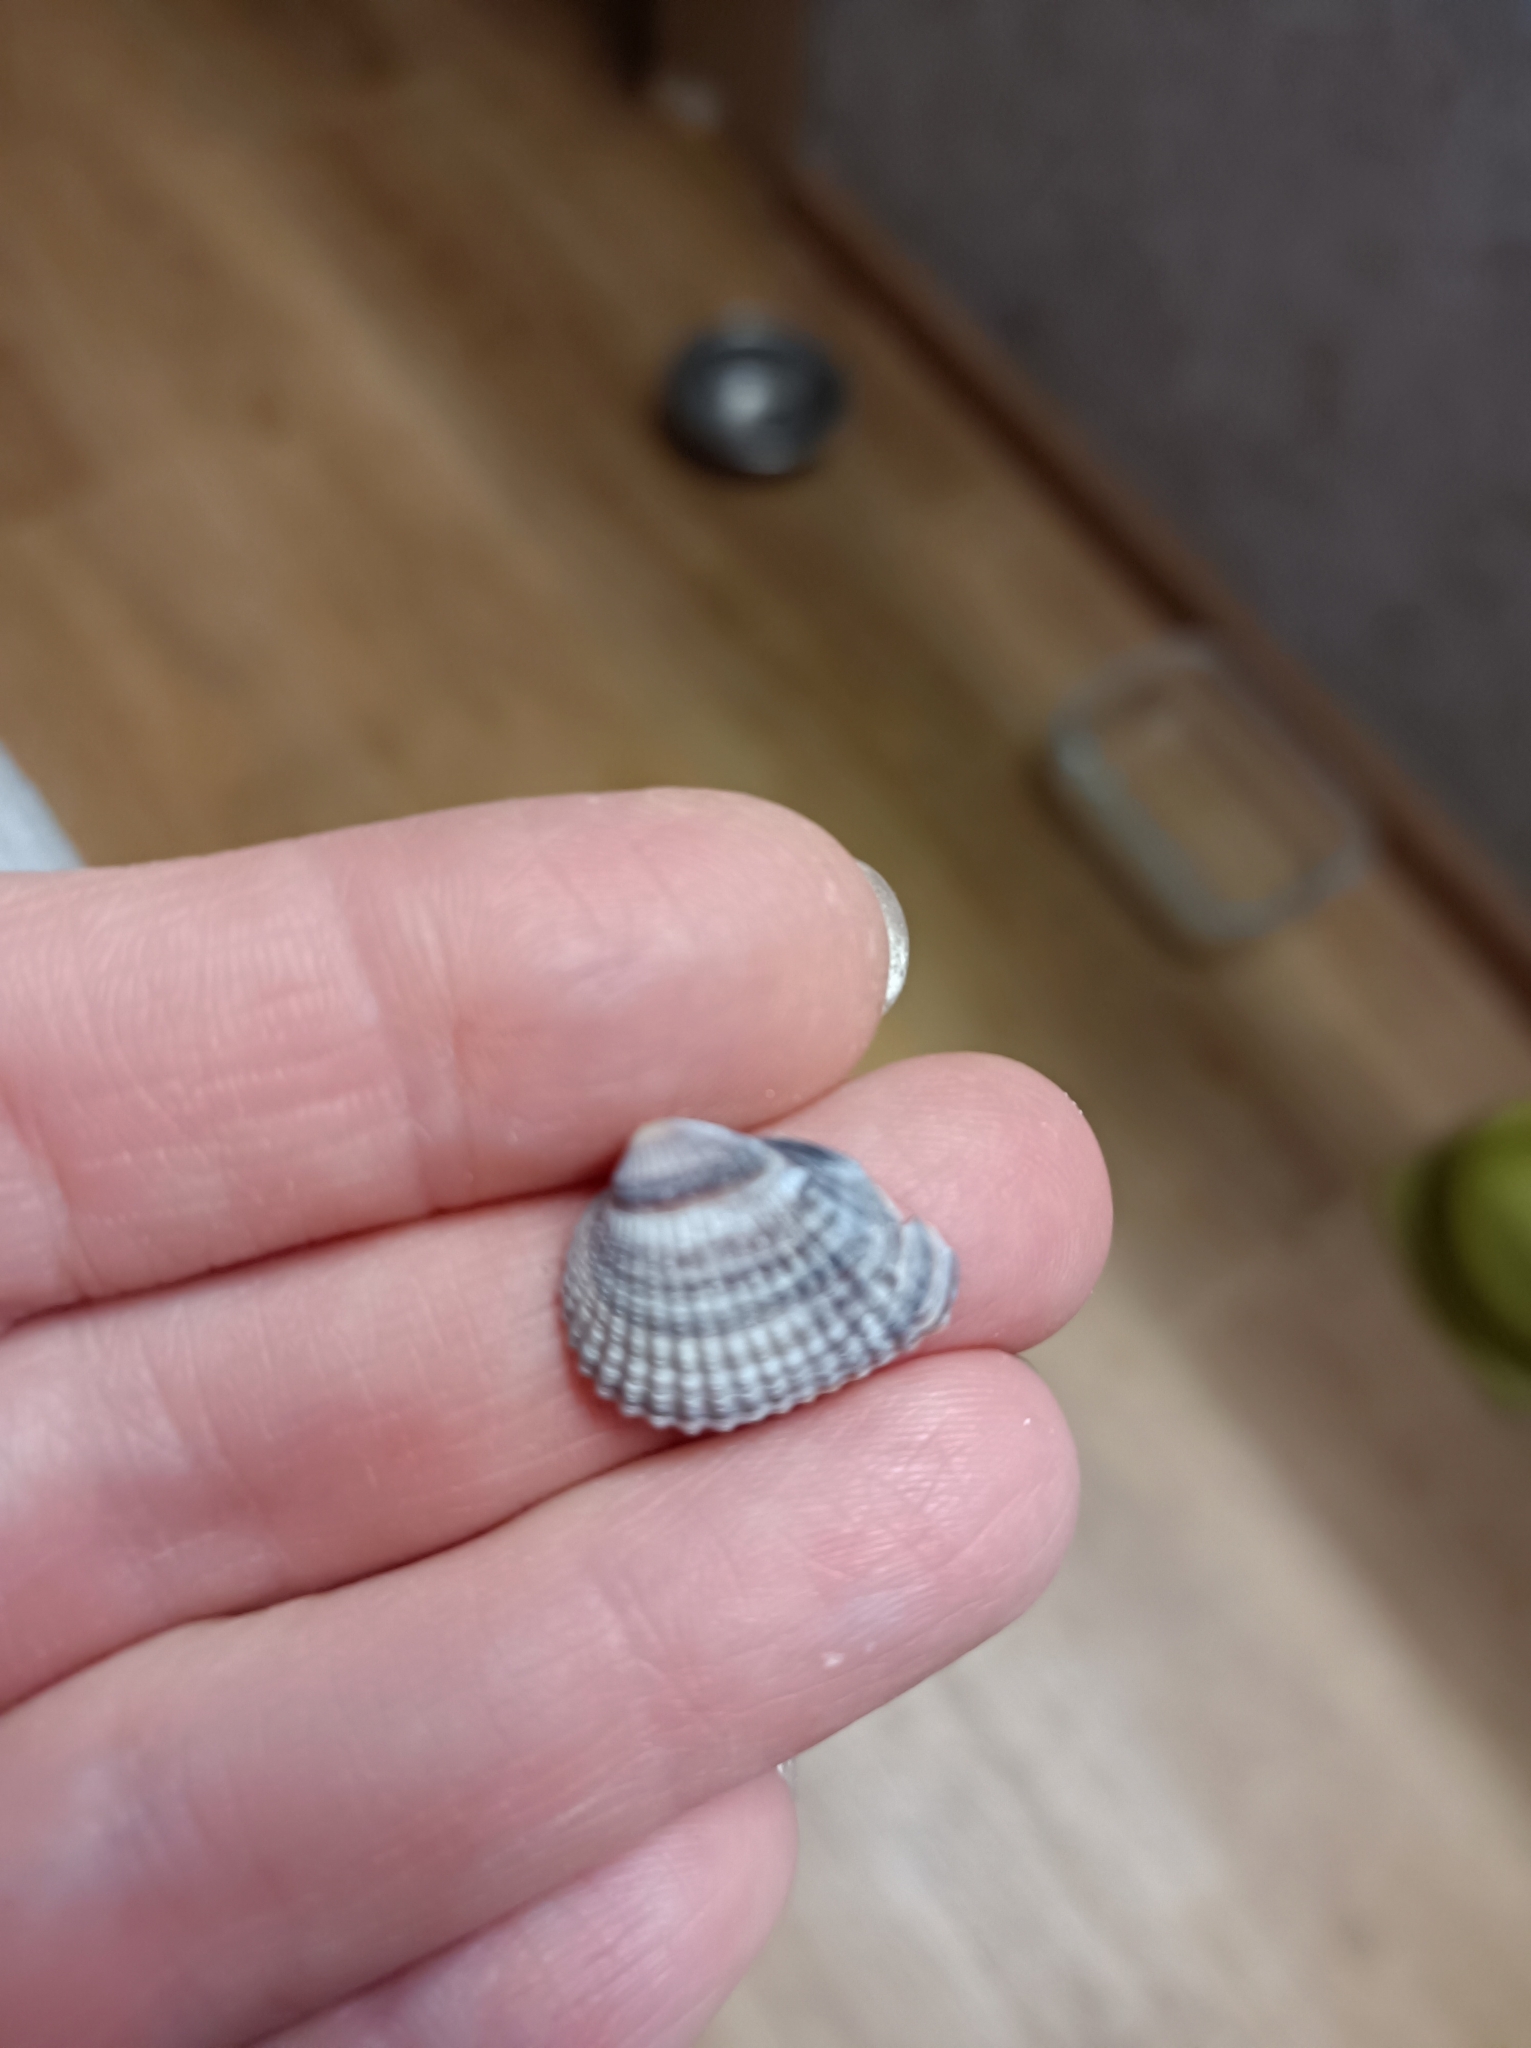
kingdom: Animalia
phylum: Mollusca
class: Bivalvia
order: Cardiida
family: Cardiidae
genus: Cerastoderma
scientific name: Cerastoderma glaucum
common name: Lagoon cockle
